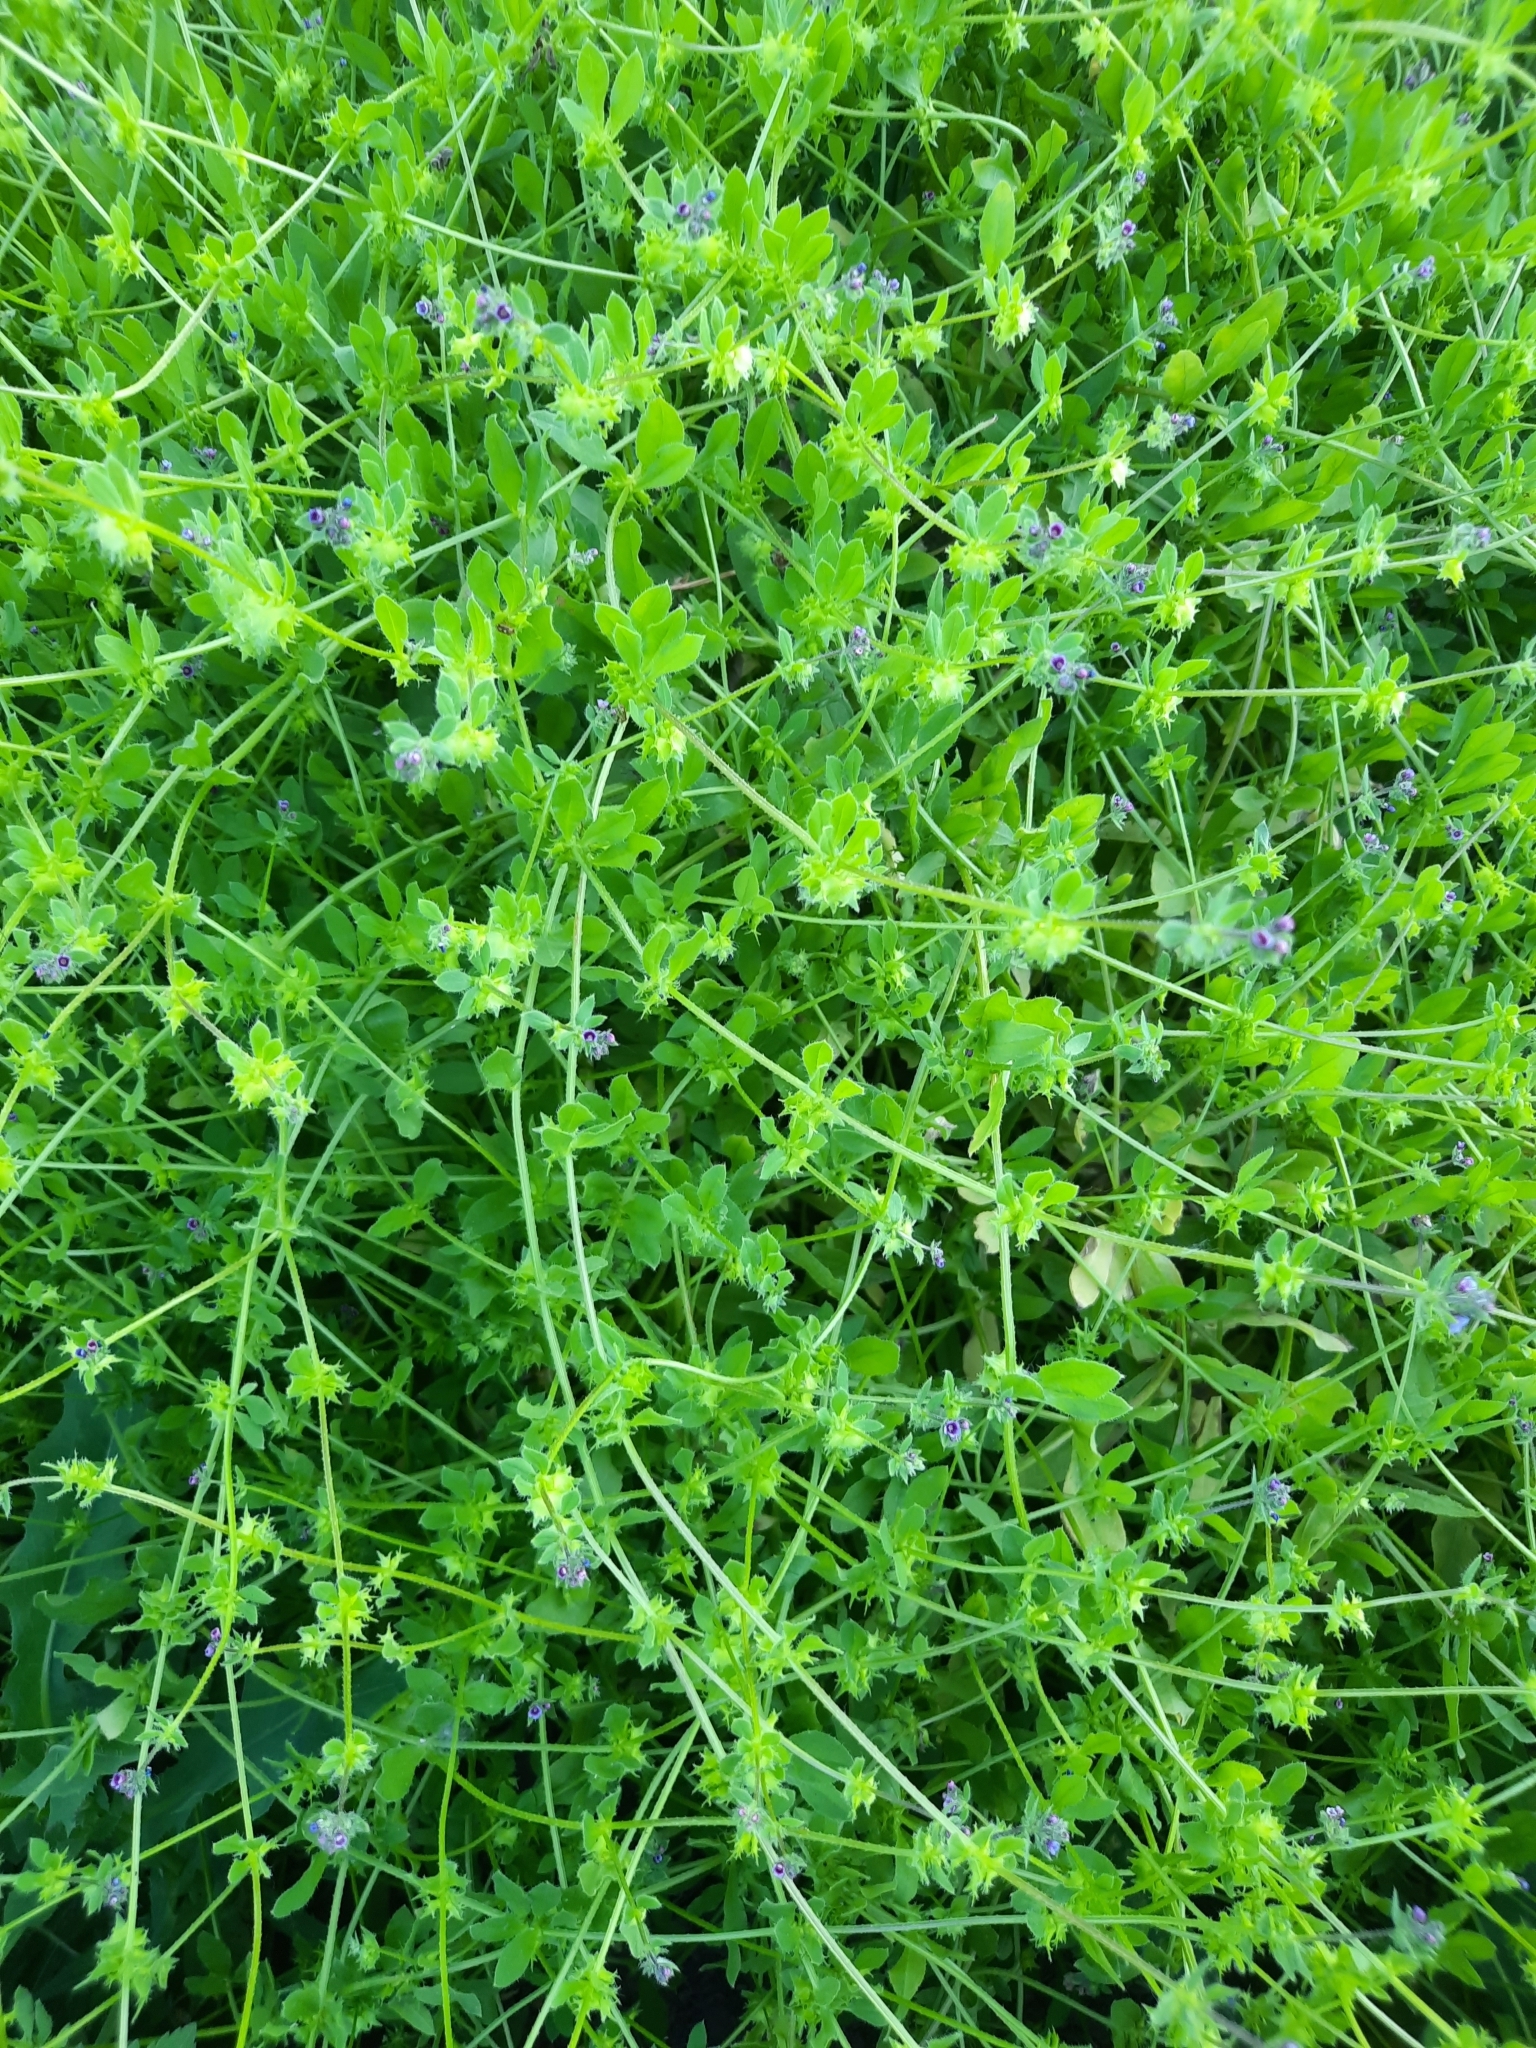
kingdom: Plantae
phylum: Tracheophyta
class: Magnoliopsida
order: Boraginales
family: Boraginaceae
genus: Asperugo
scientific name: Asperugo procumbens
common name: Madwort
